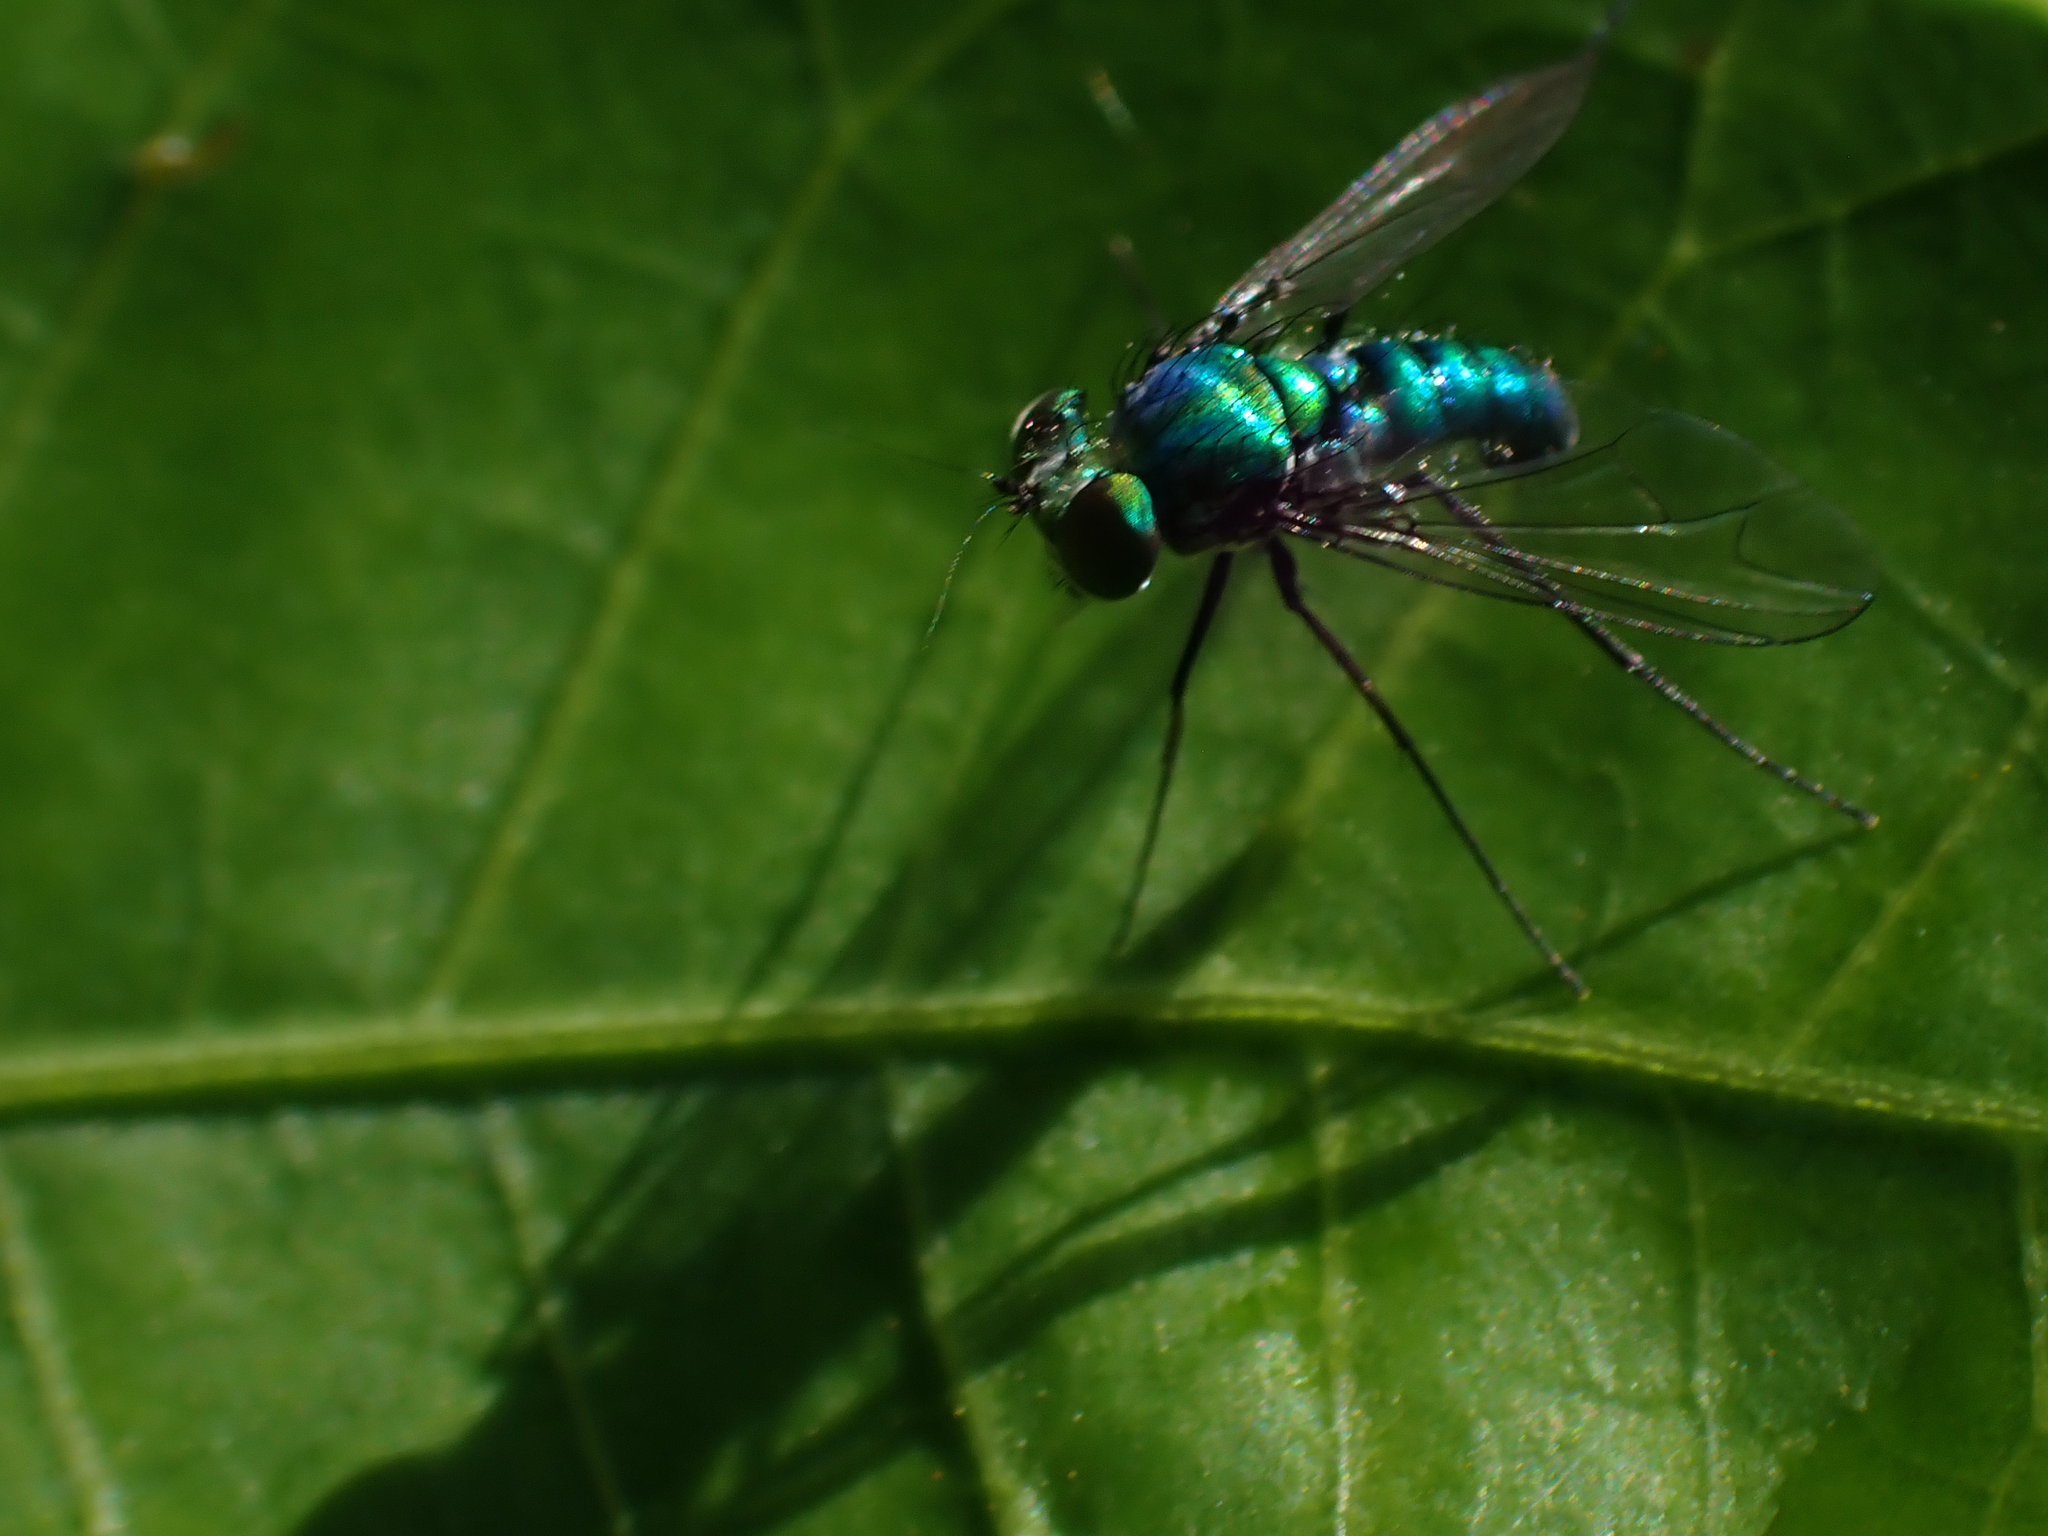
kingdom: Animalia
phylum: Arthropoda
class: Insecta
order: Diptera
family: Dolichopodidae
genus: Condylostylus
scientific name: Condylostylus purpureus
